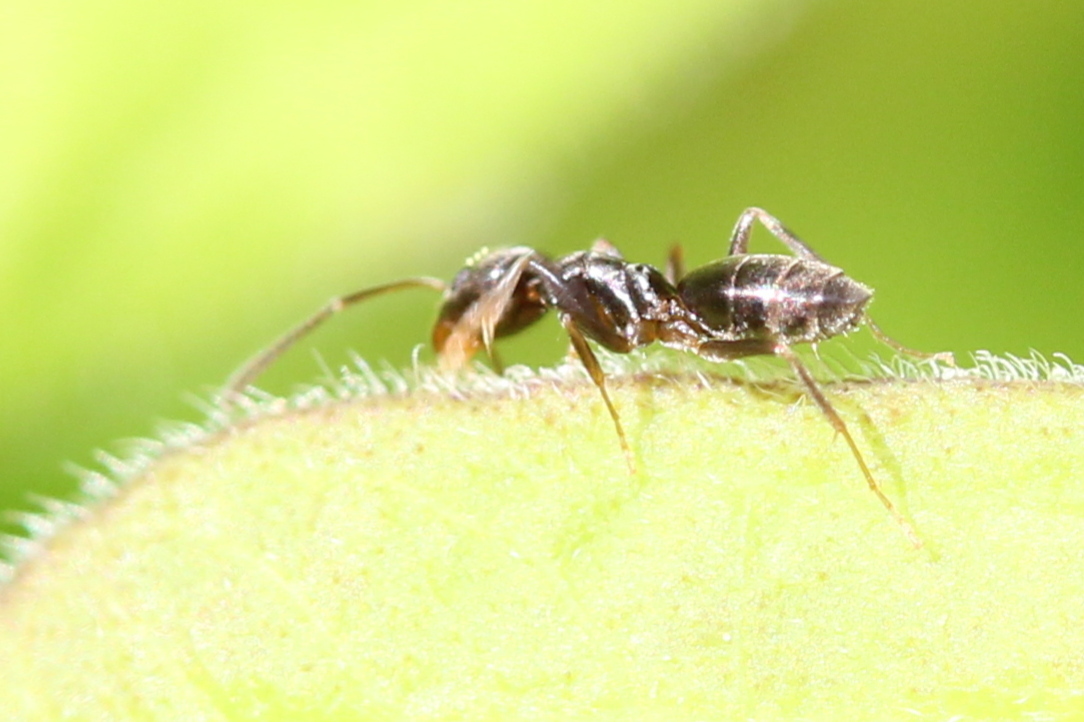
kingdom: Animalia
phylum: Arthropoda
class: Insecta
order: Hymenoptera
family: Formicidae
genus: Tapinoma
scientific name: Tapinoma sessile
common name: Odorous house ant
